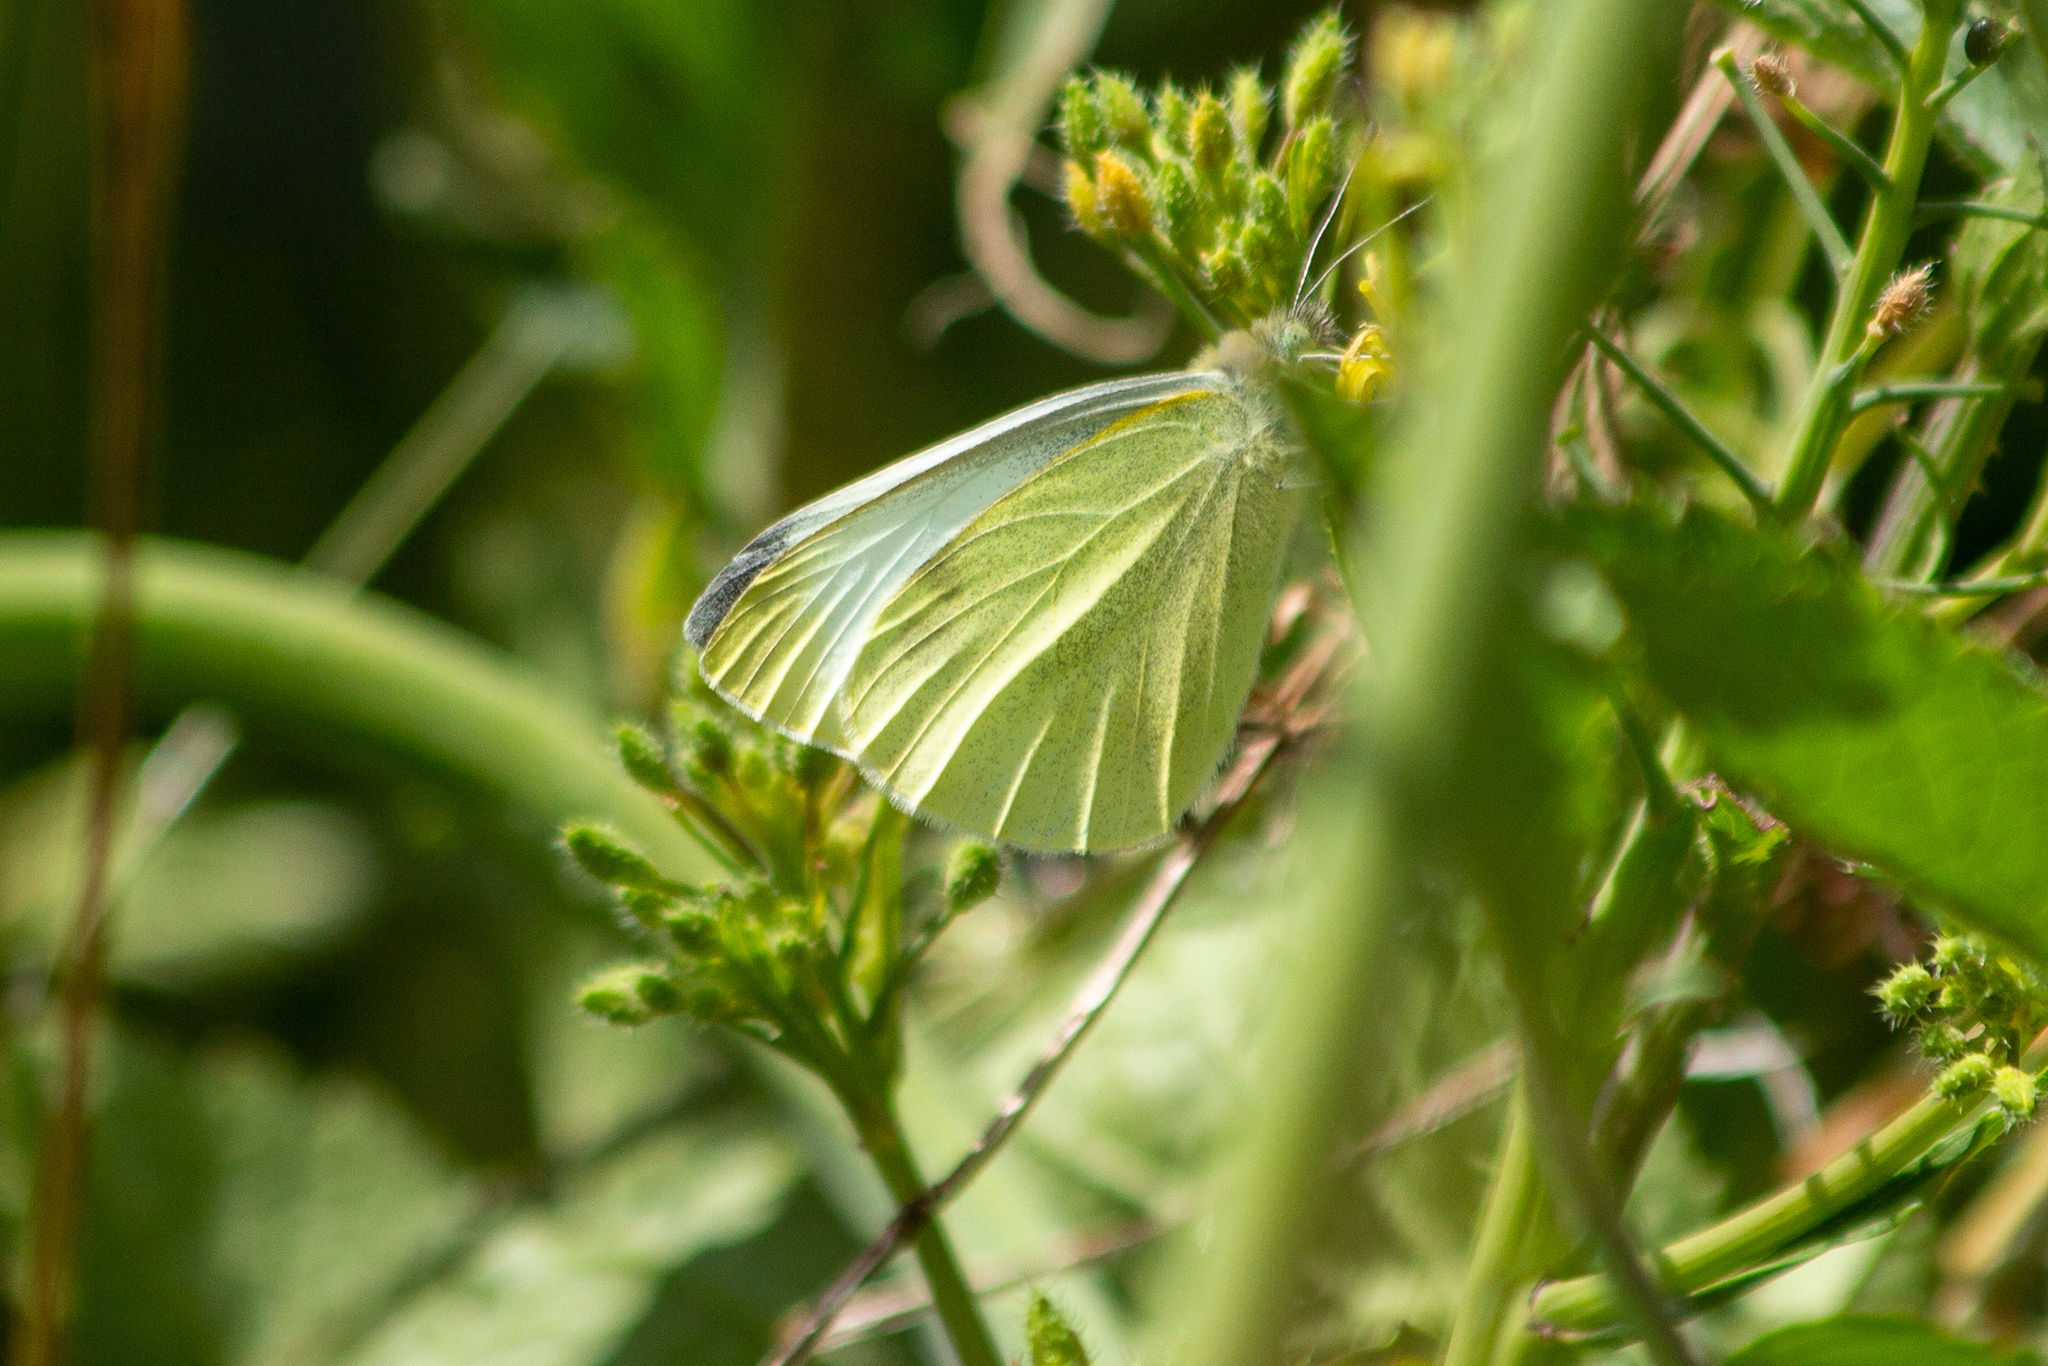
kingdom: Animalia
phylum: Arthropoda
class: Insecta
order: Lepidoptera
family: Pieridae
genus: Pieris
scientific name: Pieris rapae
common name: Small white
